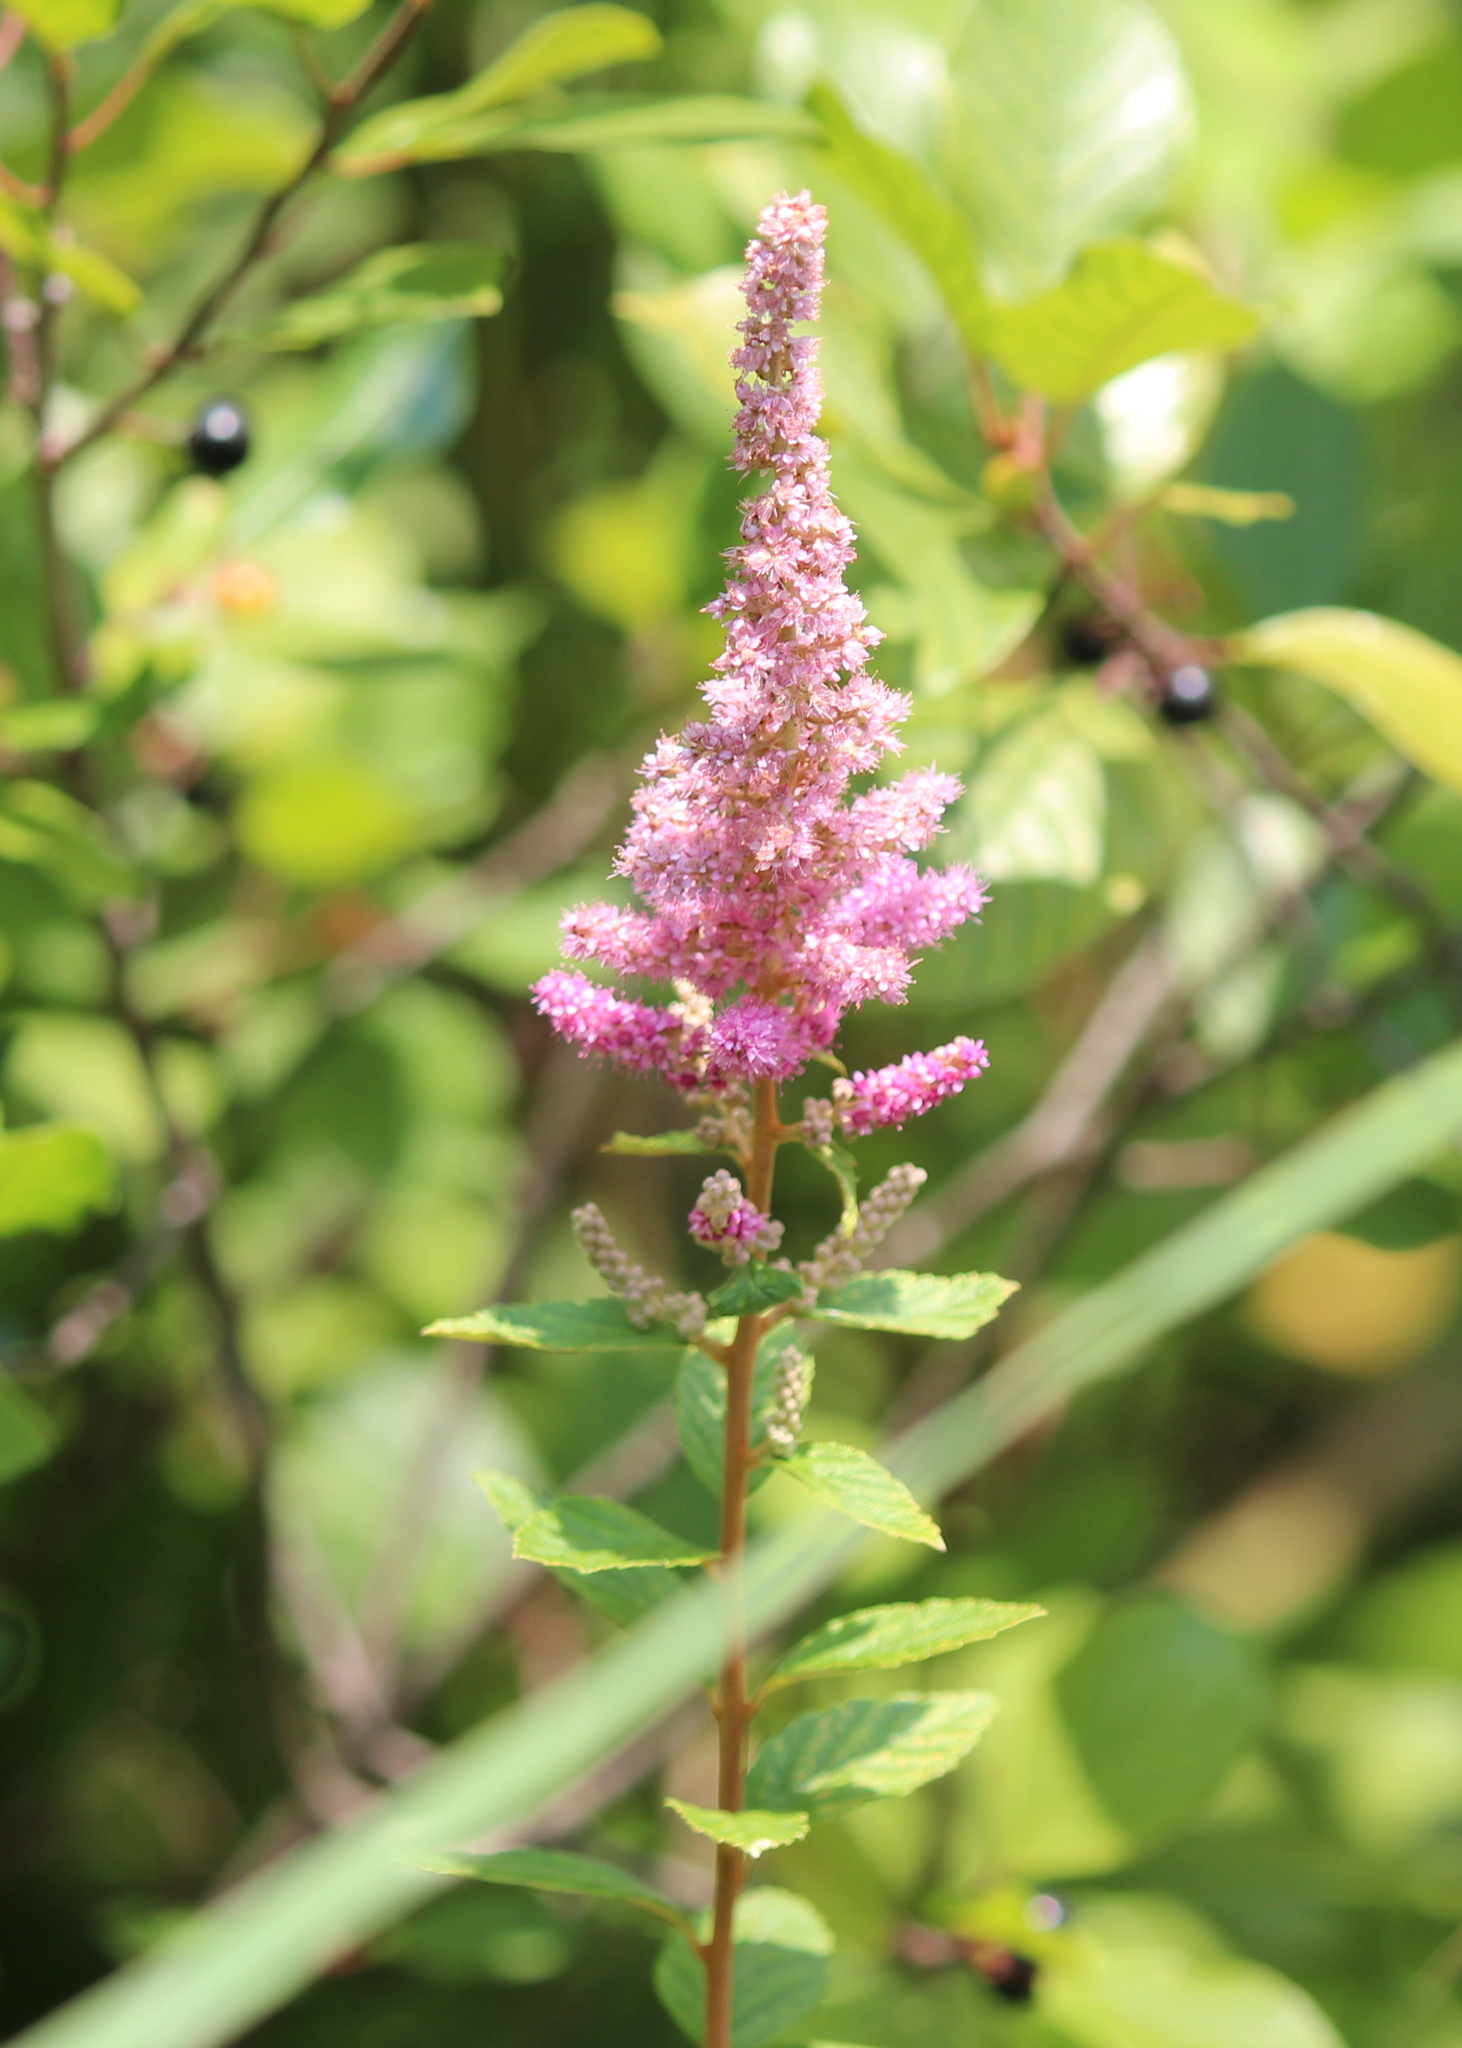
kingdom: Plantae
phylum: Tracheophyta
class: Magnoliopsida
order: Rosales
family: Rosaceae
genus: Spiraea
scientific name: Spiraea tomentosa
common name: Hardhack
